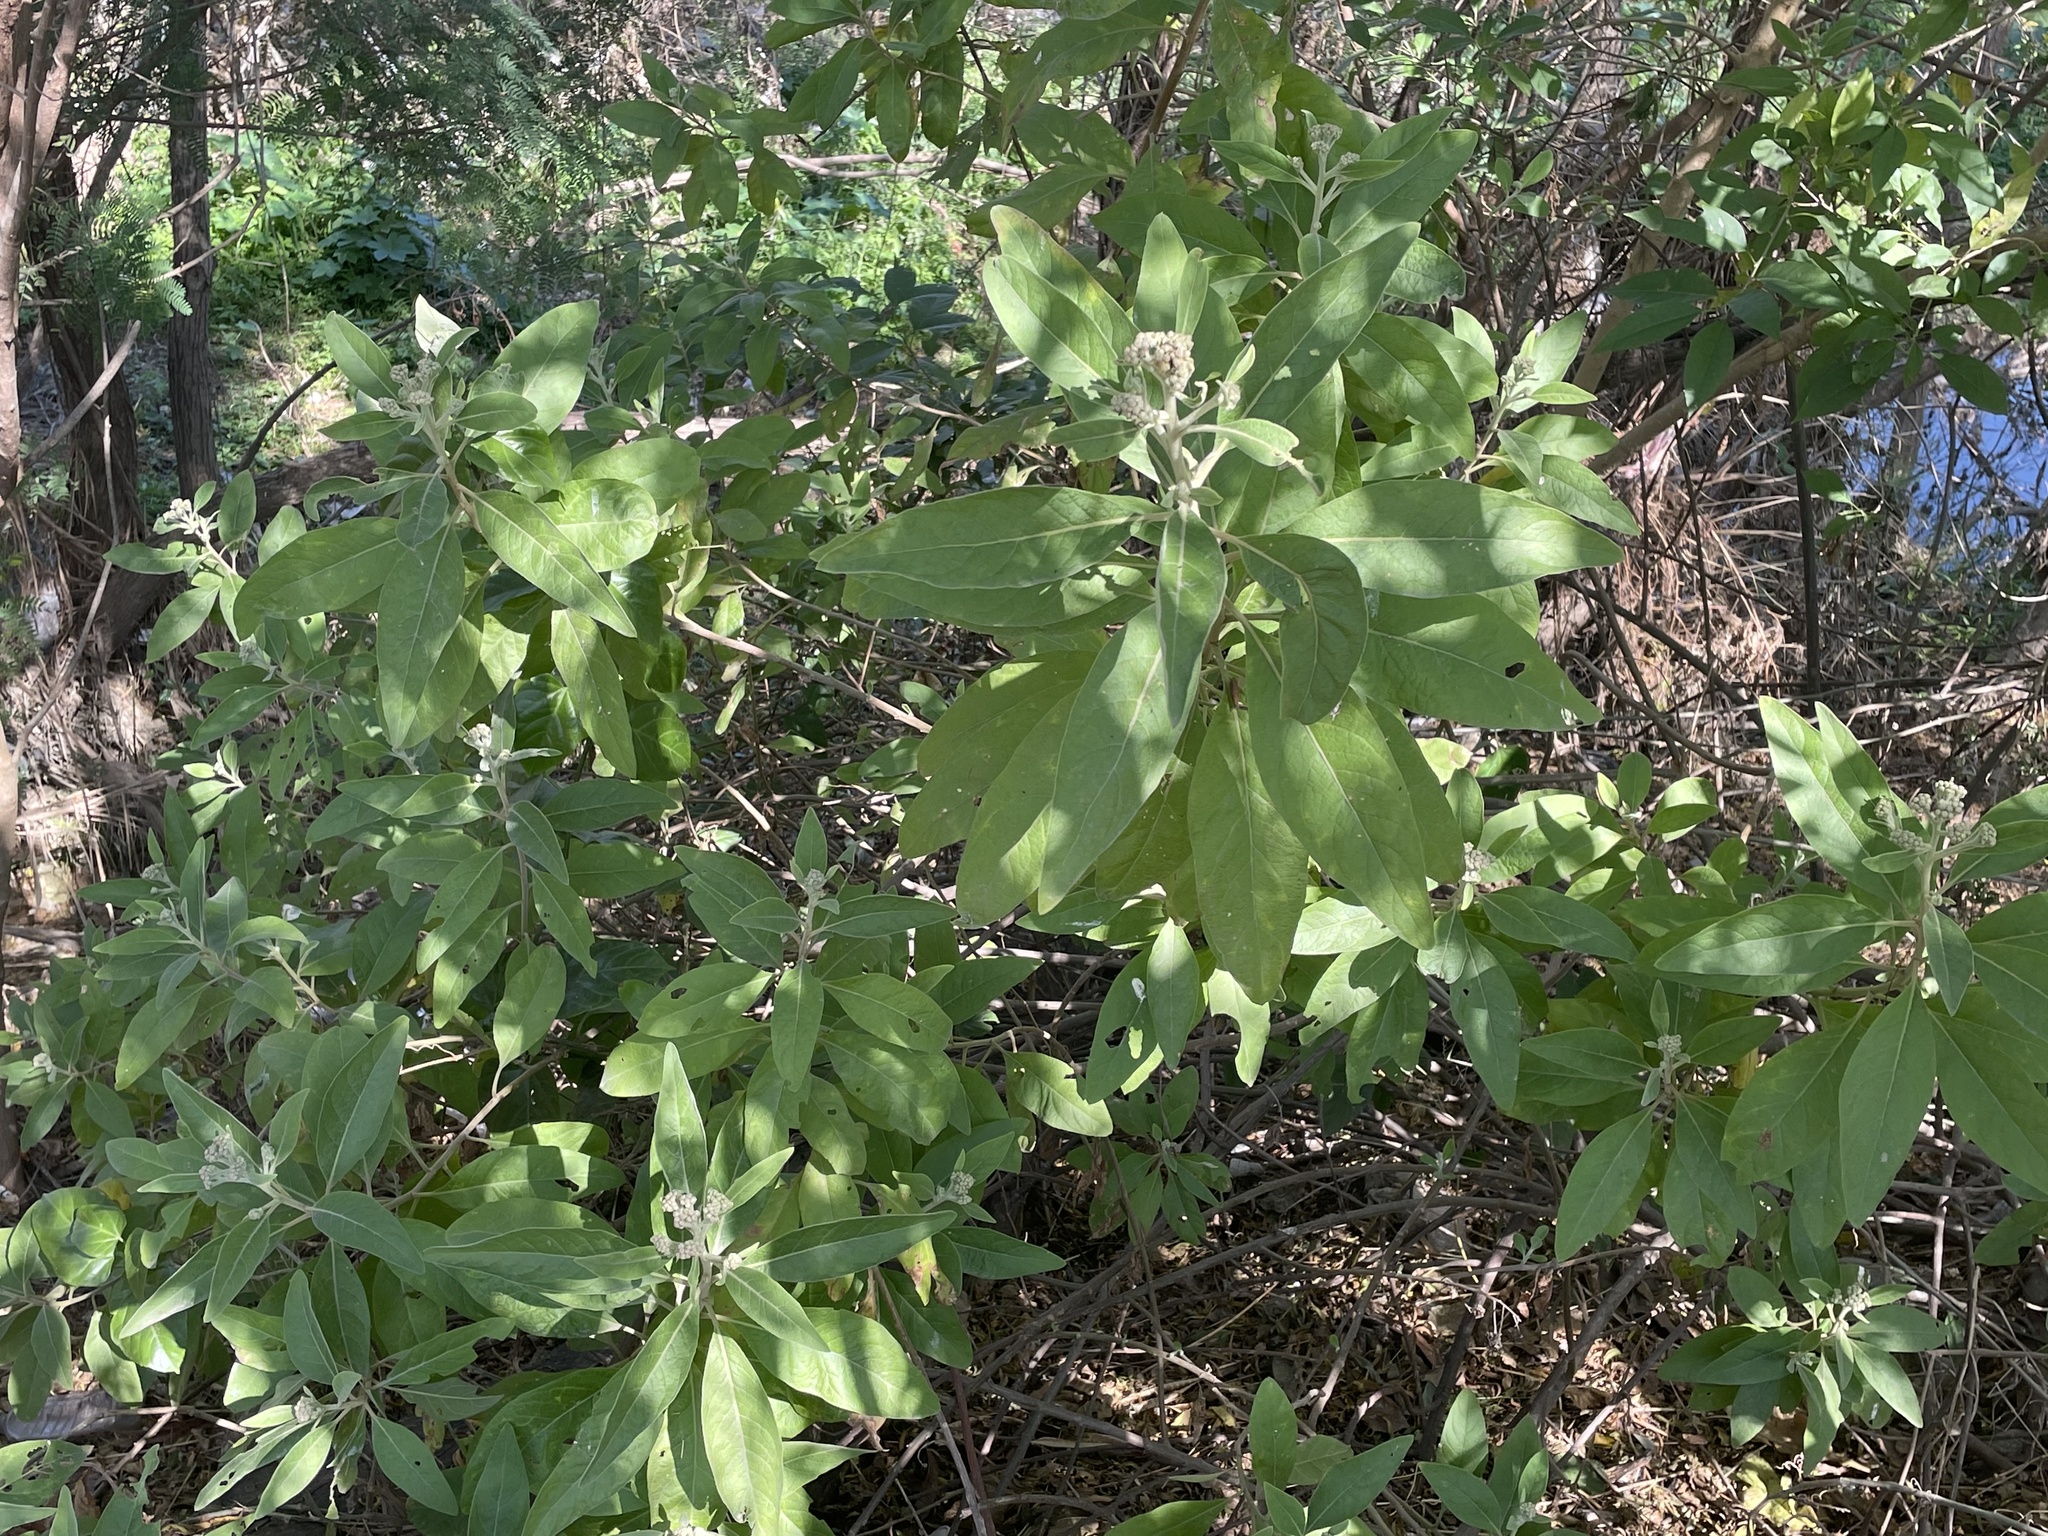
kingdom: Plantae
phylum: Tracheophyta
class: Magnoliopsida
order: Asterales
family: Asteraceae
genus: Pluchea
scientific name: Pluchea carolinensis
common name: Marsh fleabane
